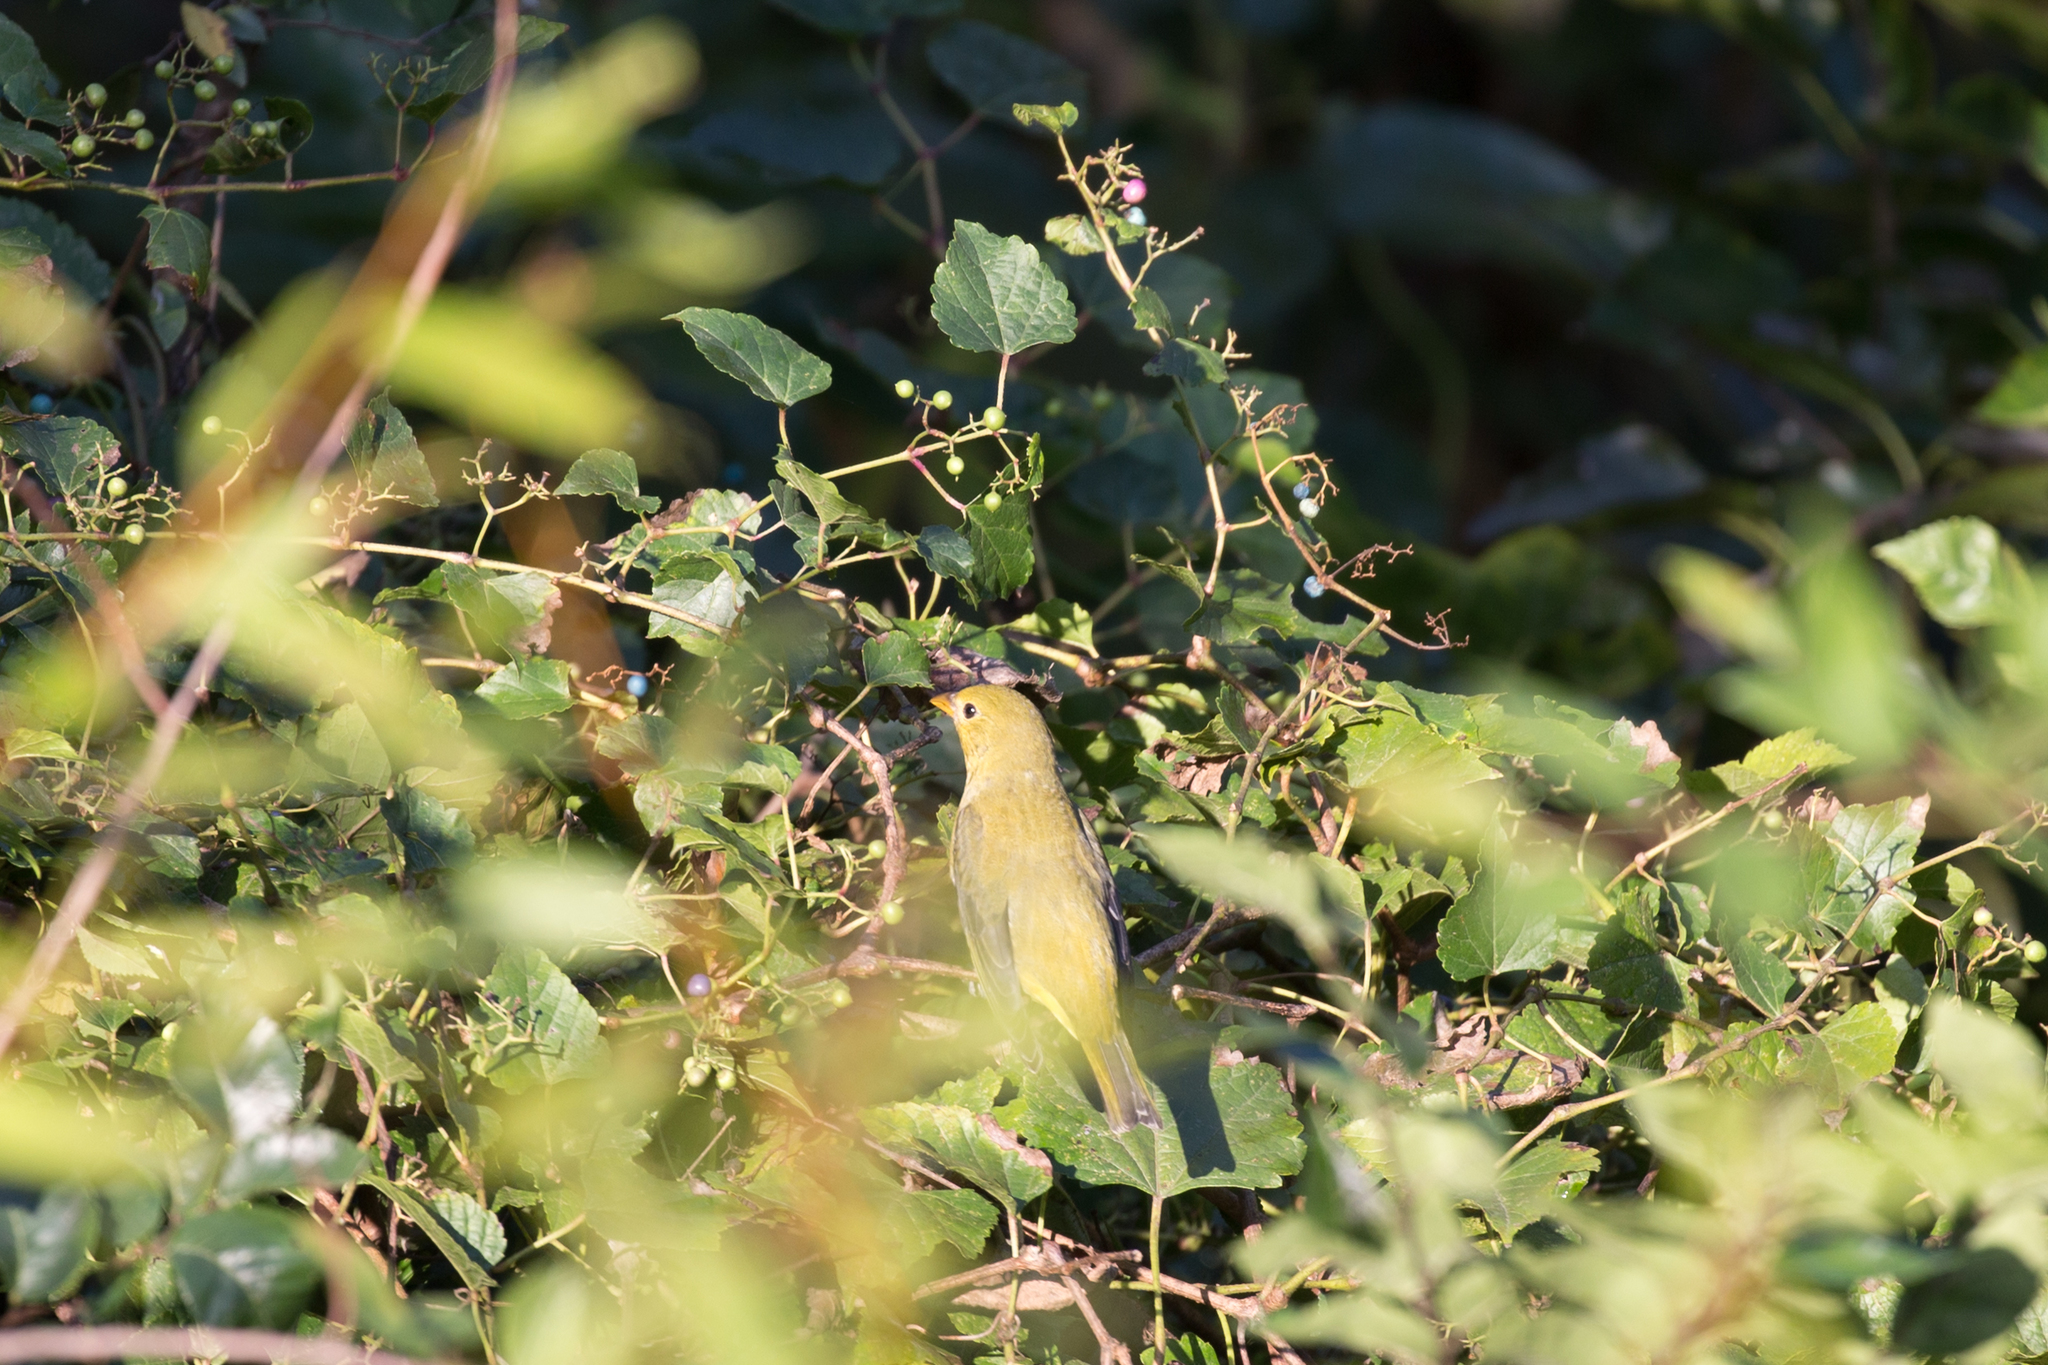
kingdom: Animalia
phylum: Chordata
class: Aves
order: Passeriformes
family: Cardinalidae
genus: Piranga
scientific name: Piranga olivacea
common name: Scarlet tanager
